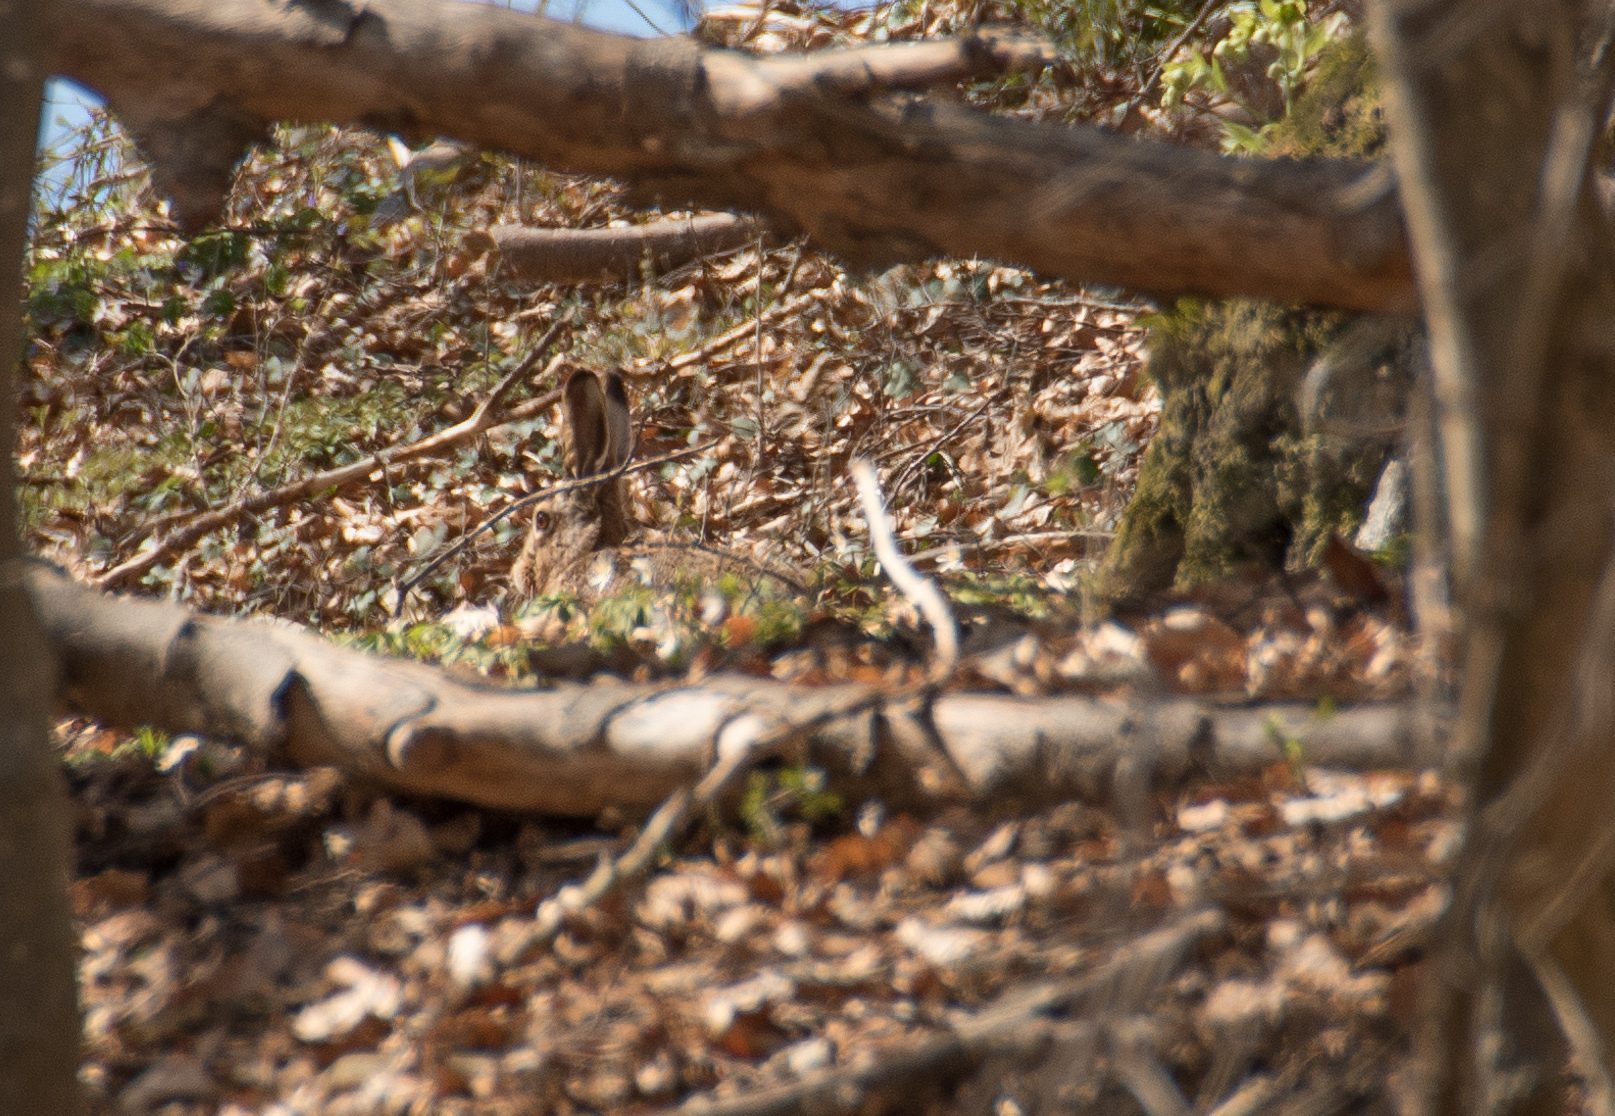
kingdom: Animalia
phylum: Chordata
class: Mammalia
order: Lagomorpha
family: Leporidae
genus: Lepus
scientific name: Lepus europaeus
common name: European hare
